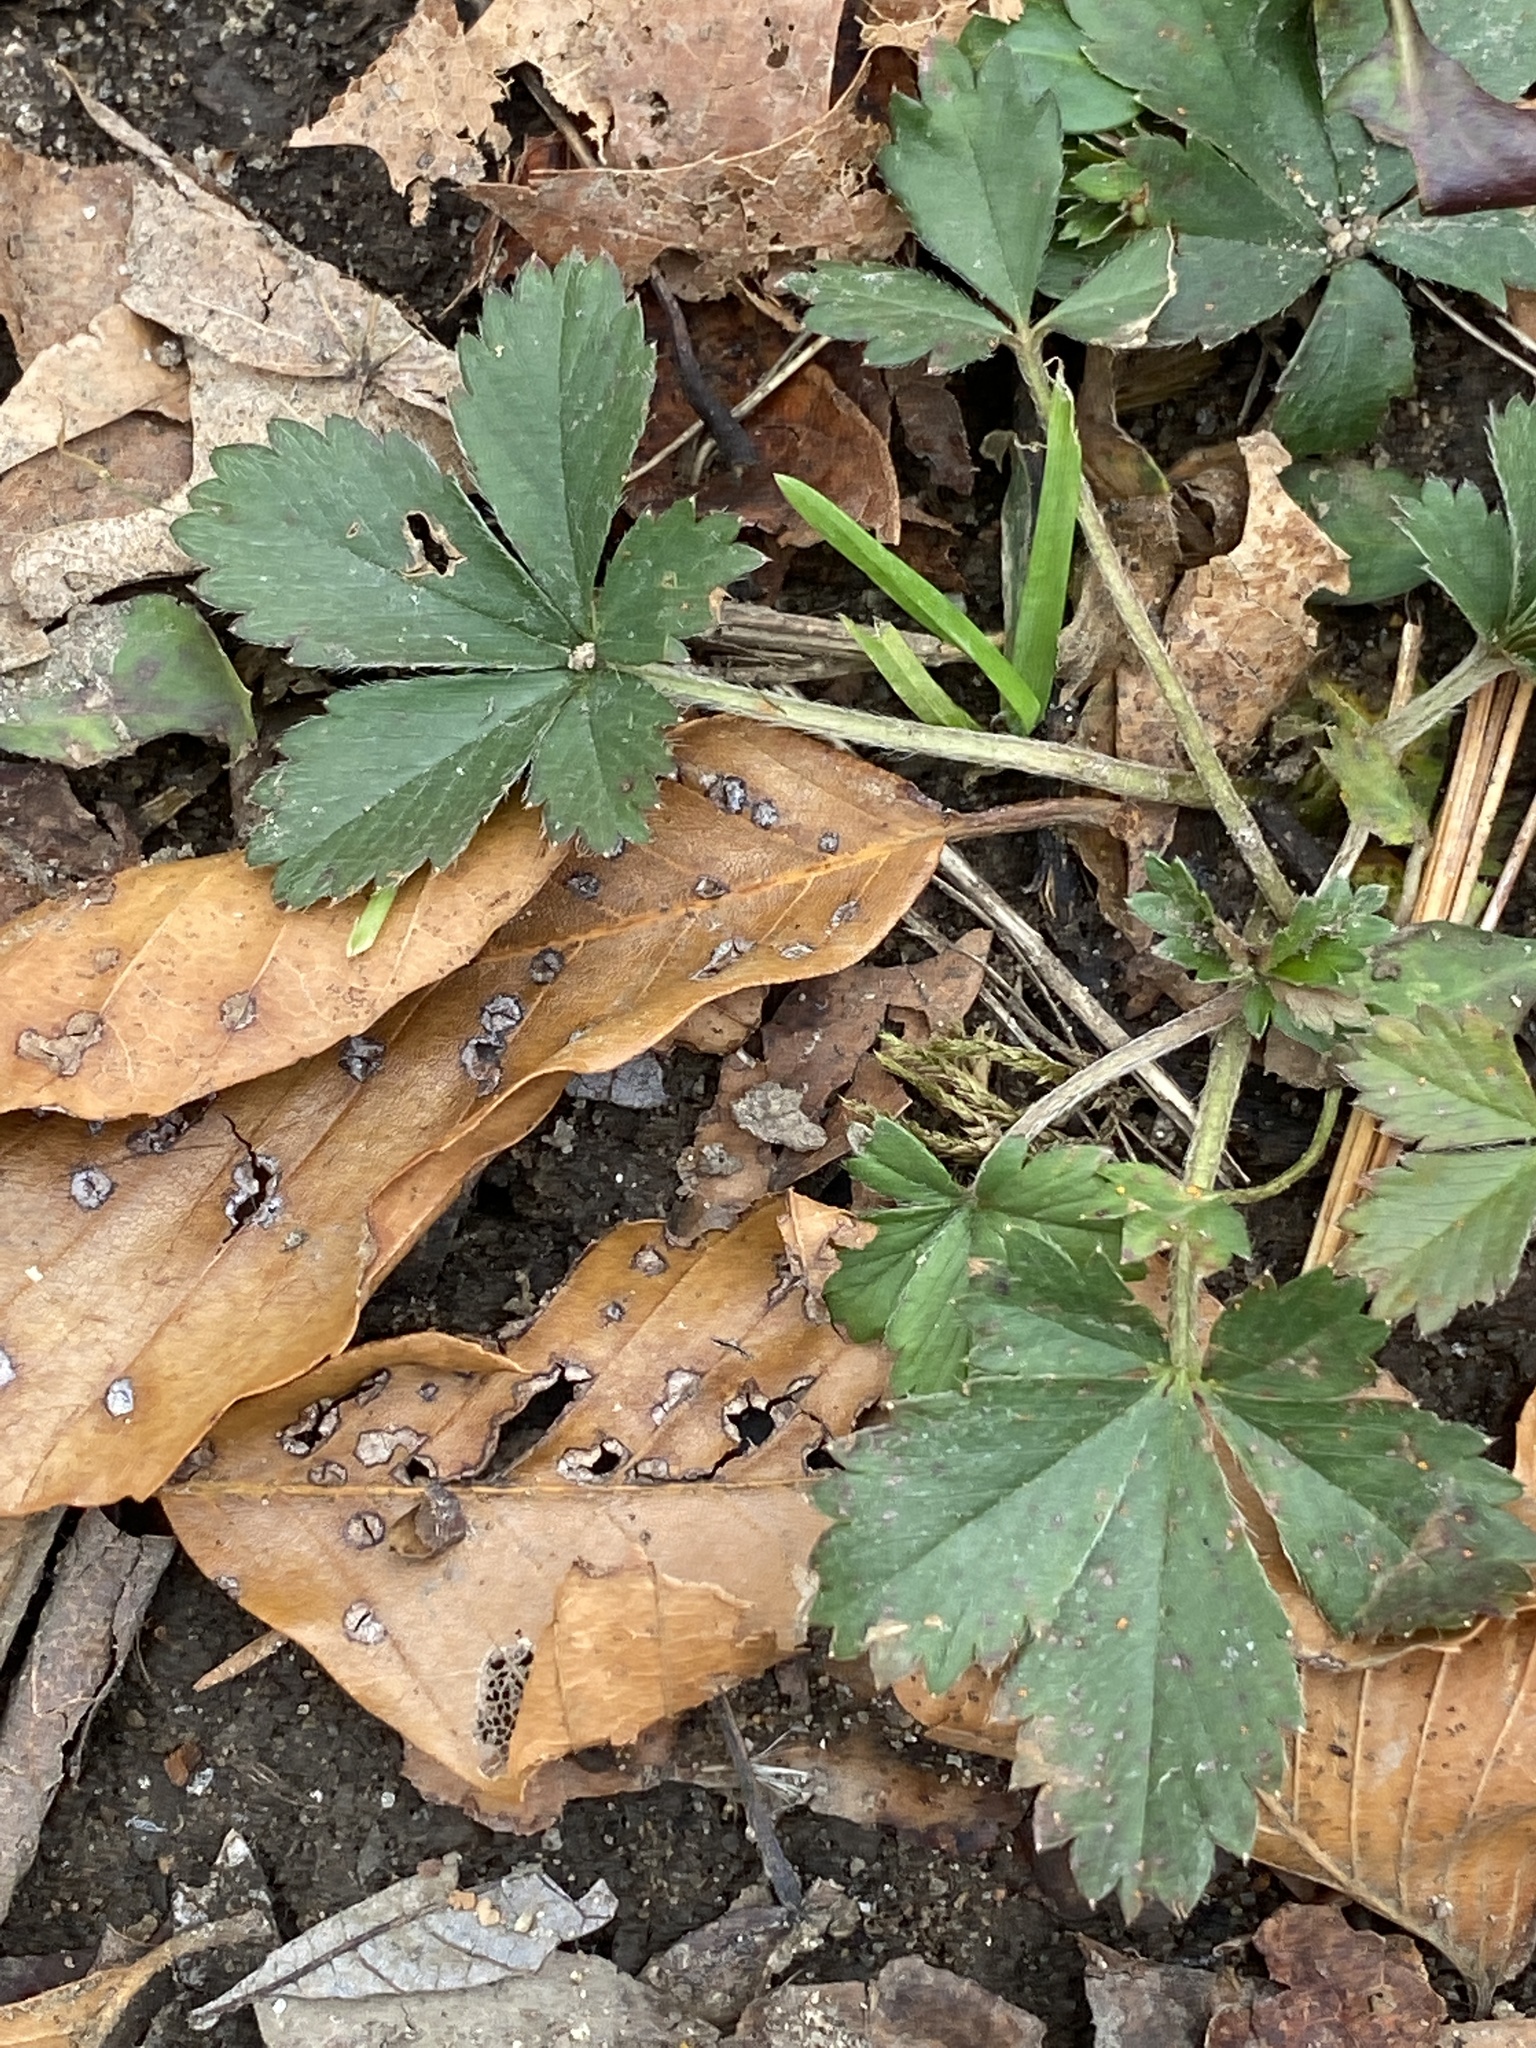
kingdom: Plantae
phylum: Tracheophyta
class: Magnoliopsida
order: Rosales
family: Rosaceae
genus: Potentilla
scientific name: Potentilla canadensis
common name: Canada cinquefoil
